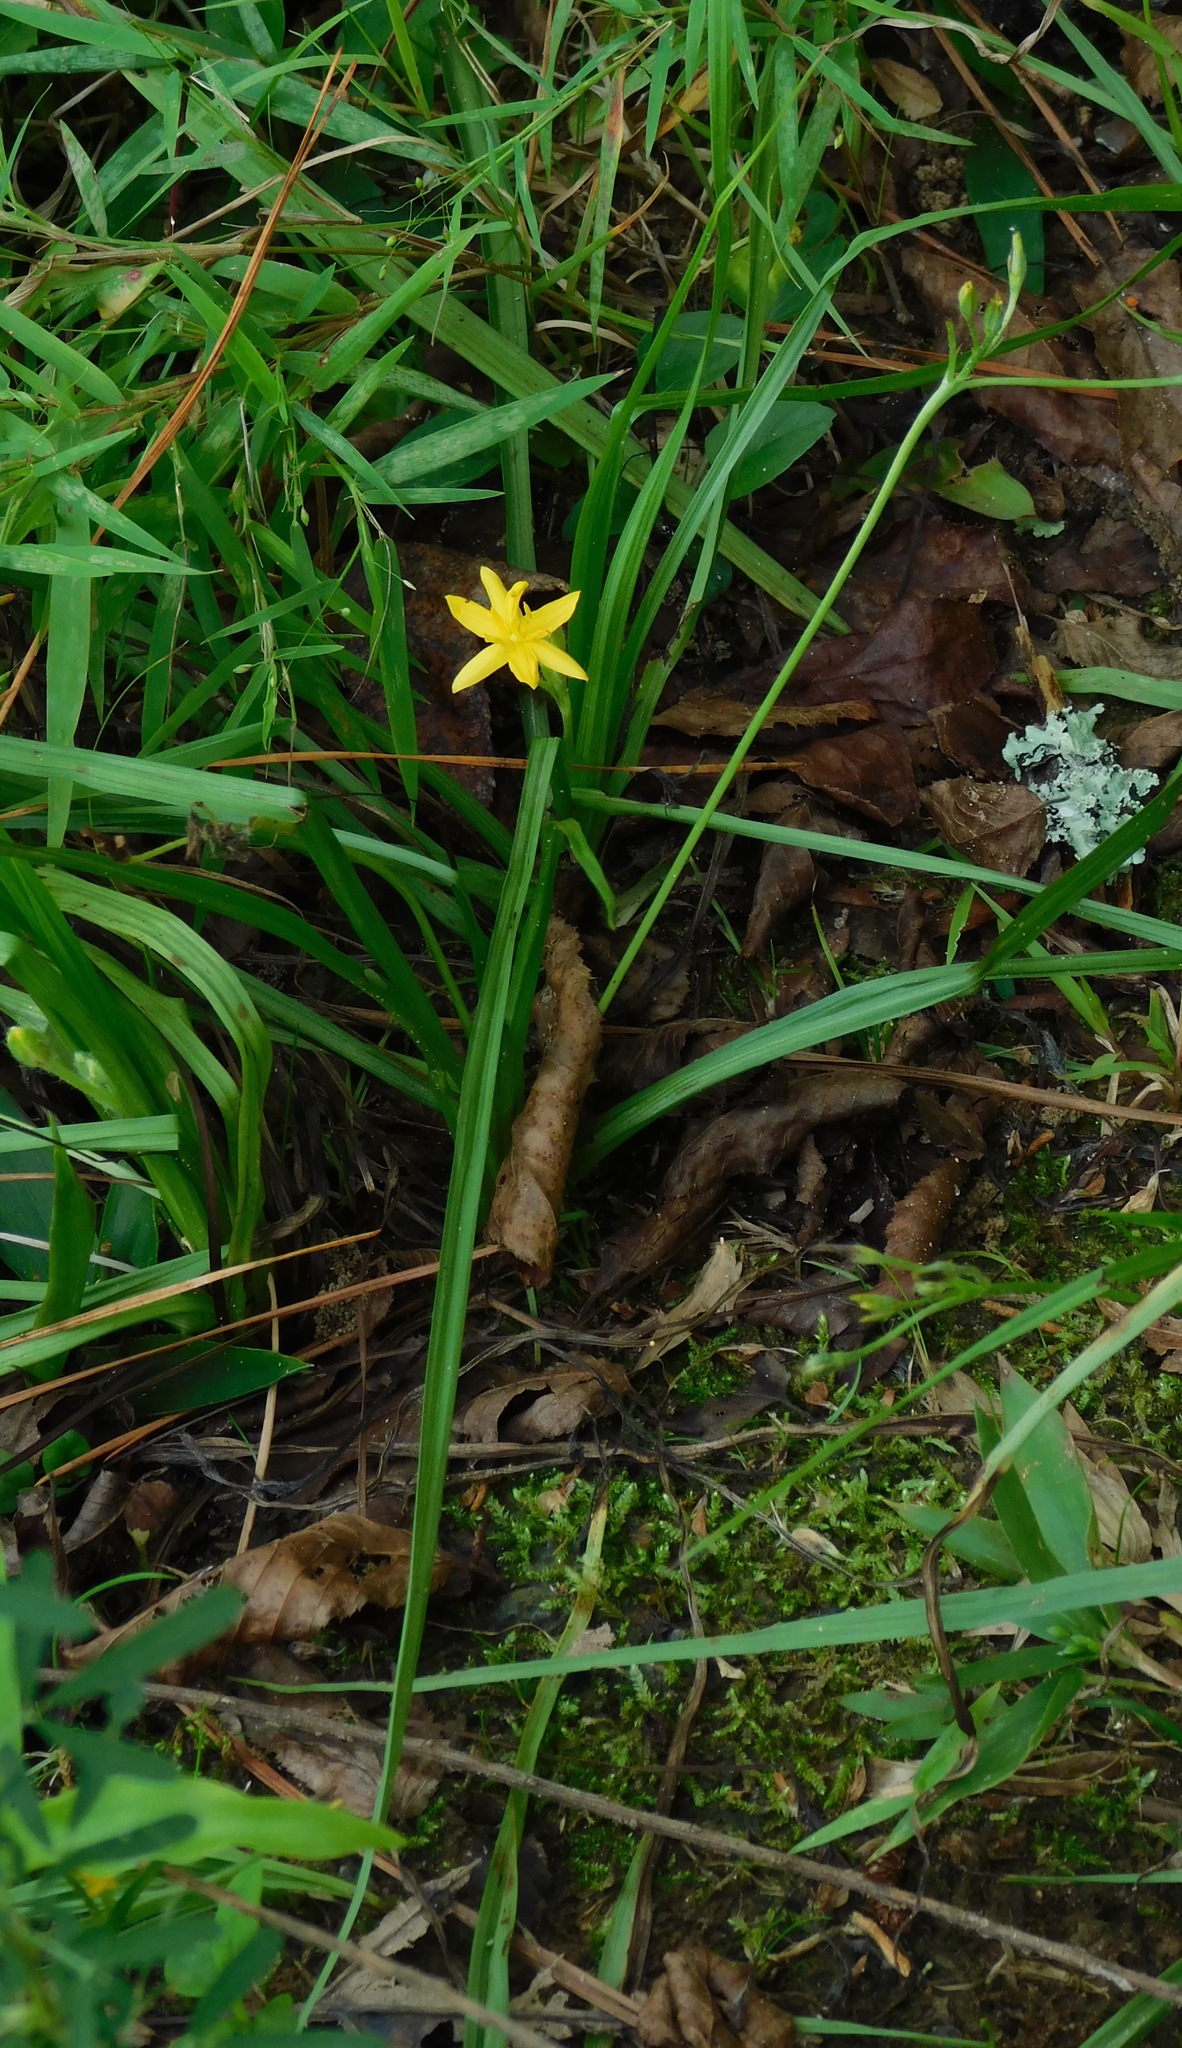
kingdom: Plantae
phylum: Tracheophyta
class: Liliopsida
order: Asparagales
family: Hypoxidaceae
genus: Hypoxis
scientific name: Hypoxis hirsuta
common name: Common goldstar
